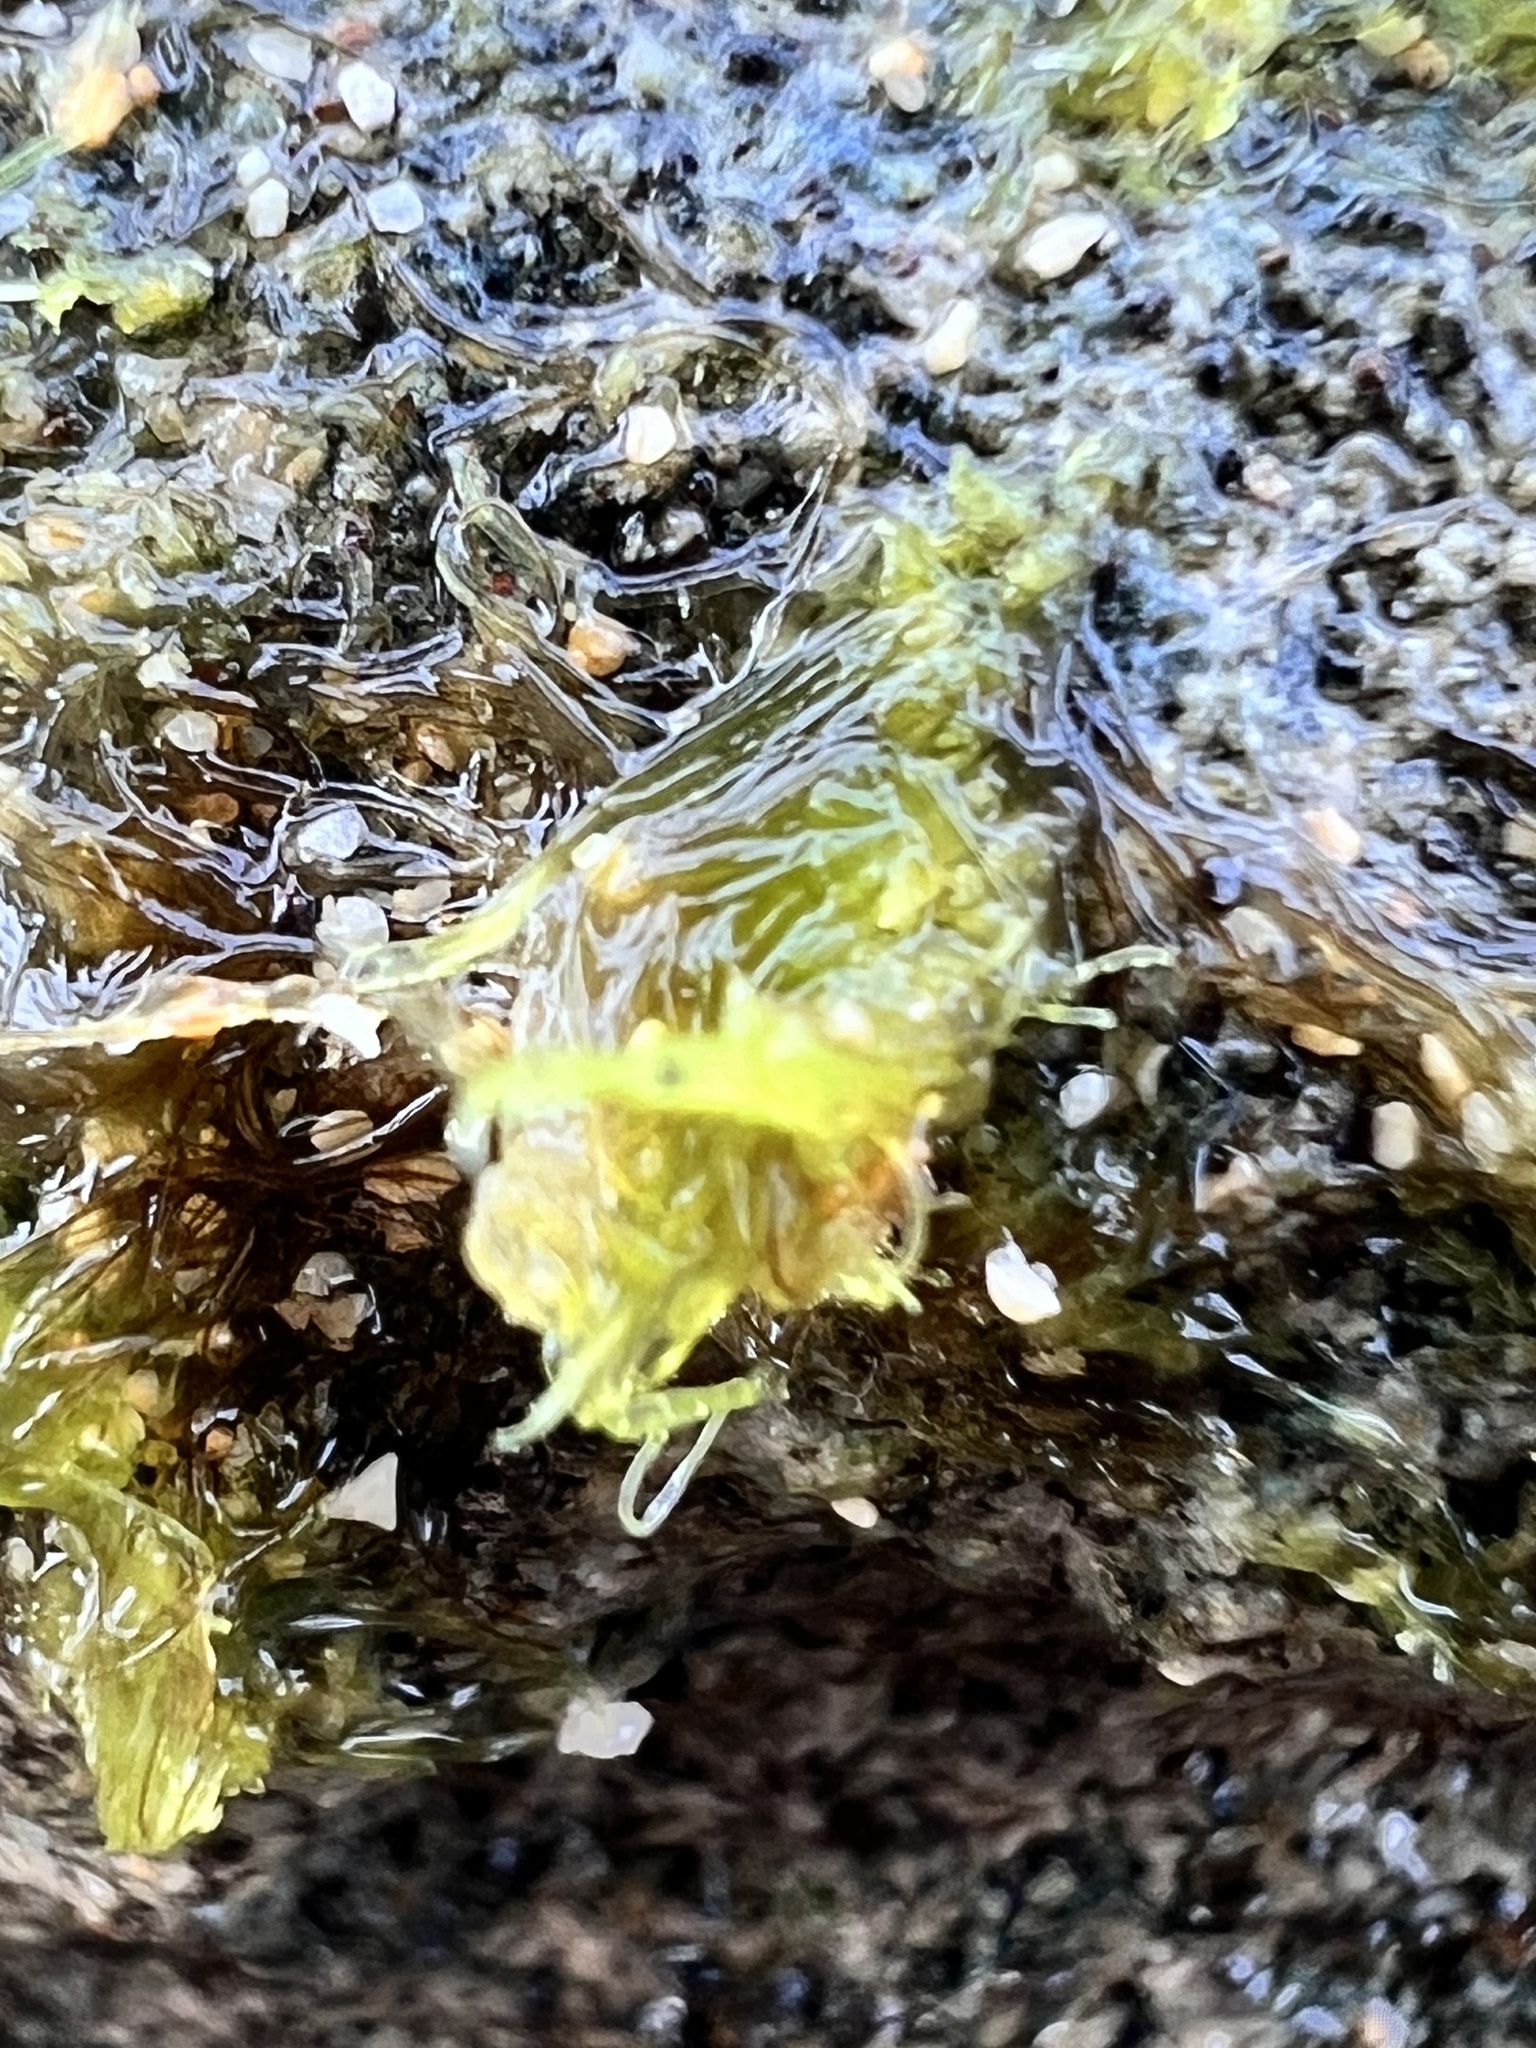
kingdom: Plantae
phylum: Chlorophyta
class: Ulvophyceae
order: Ulvales
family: Ulvaceae
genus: Ulva
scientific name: Ulva lactuca
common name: Sea lettuce
